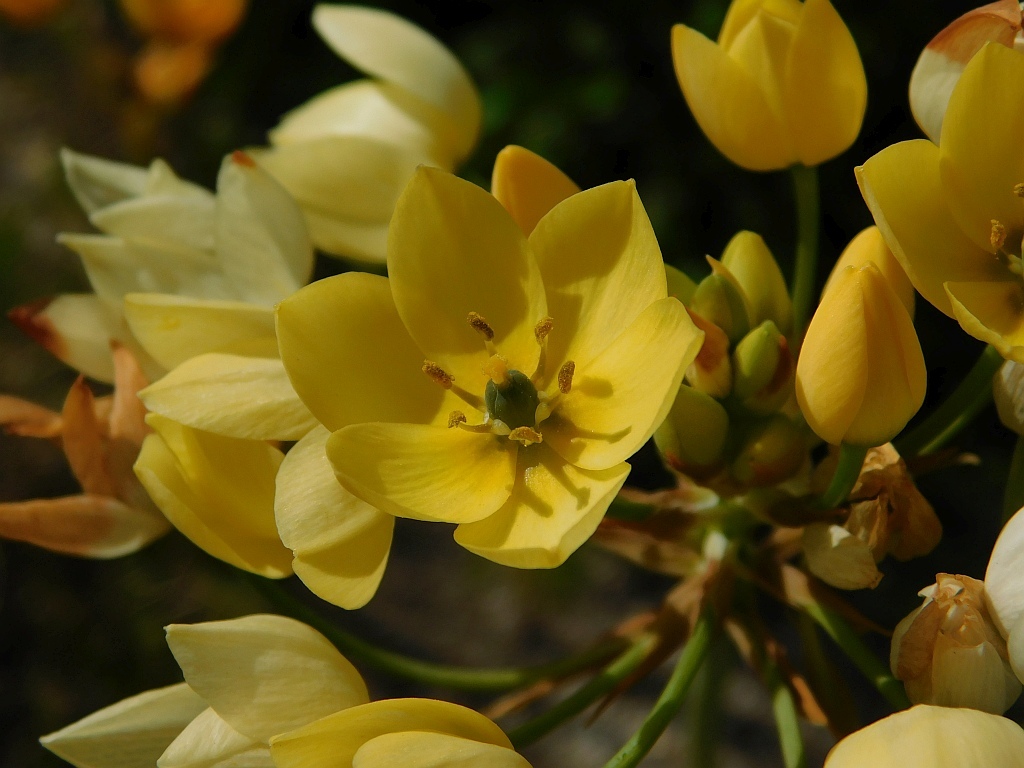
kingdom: Plantae
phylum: Tracheophyta
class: Liliopsida
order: Asparagales
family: Asparagaceae
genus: Ornithogalum
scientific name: Ornithogalum dubium
